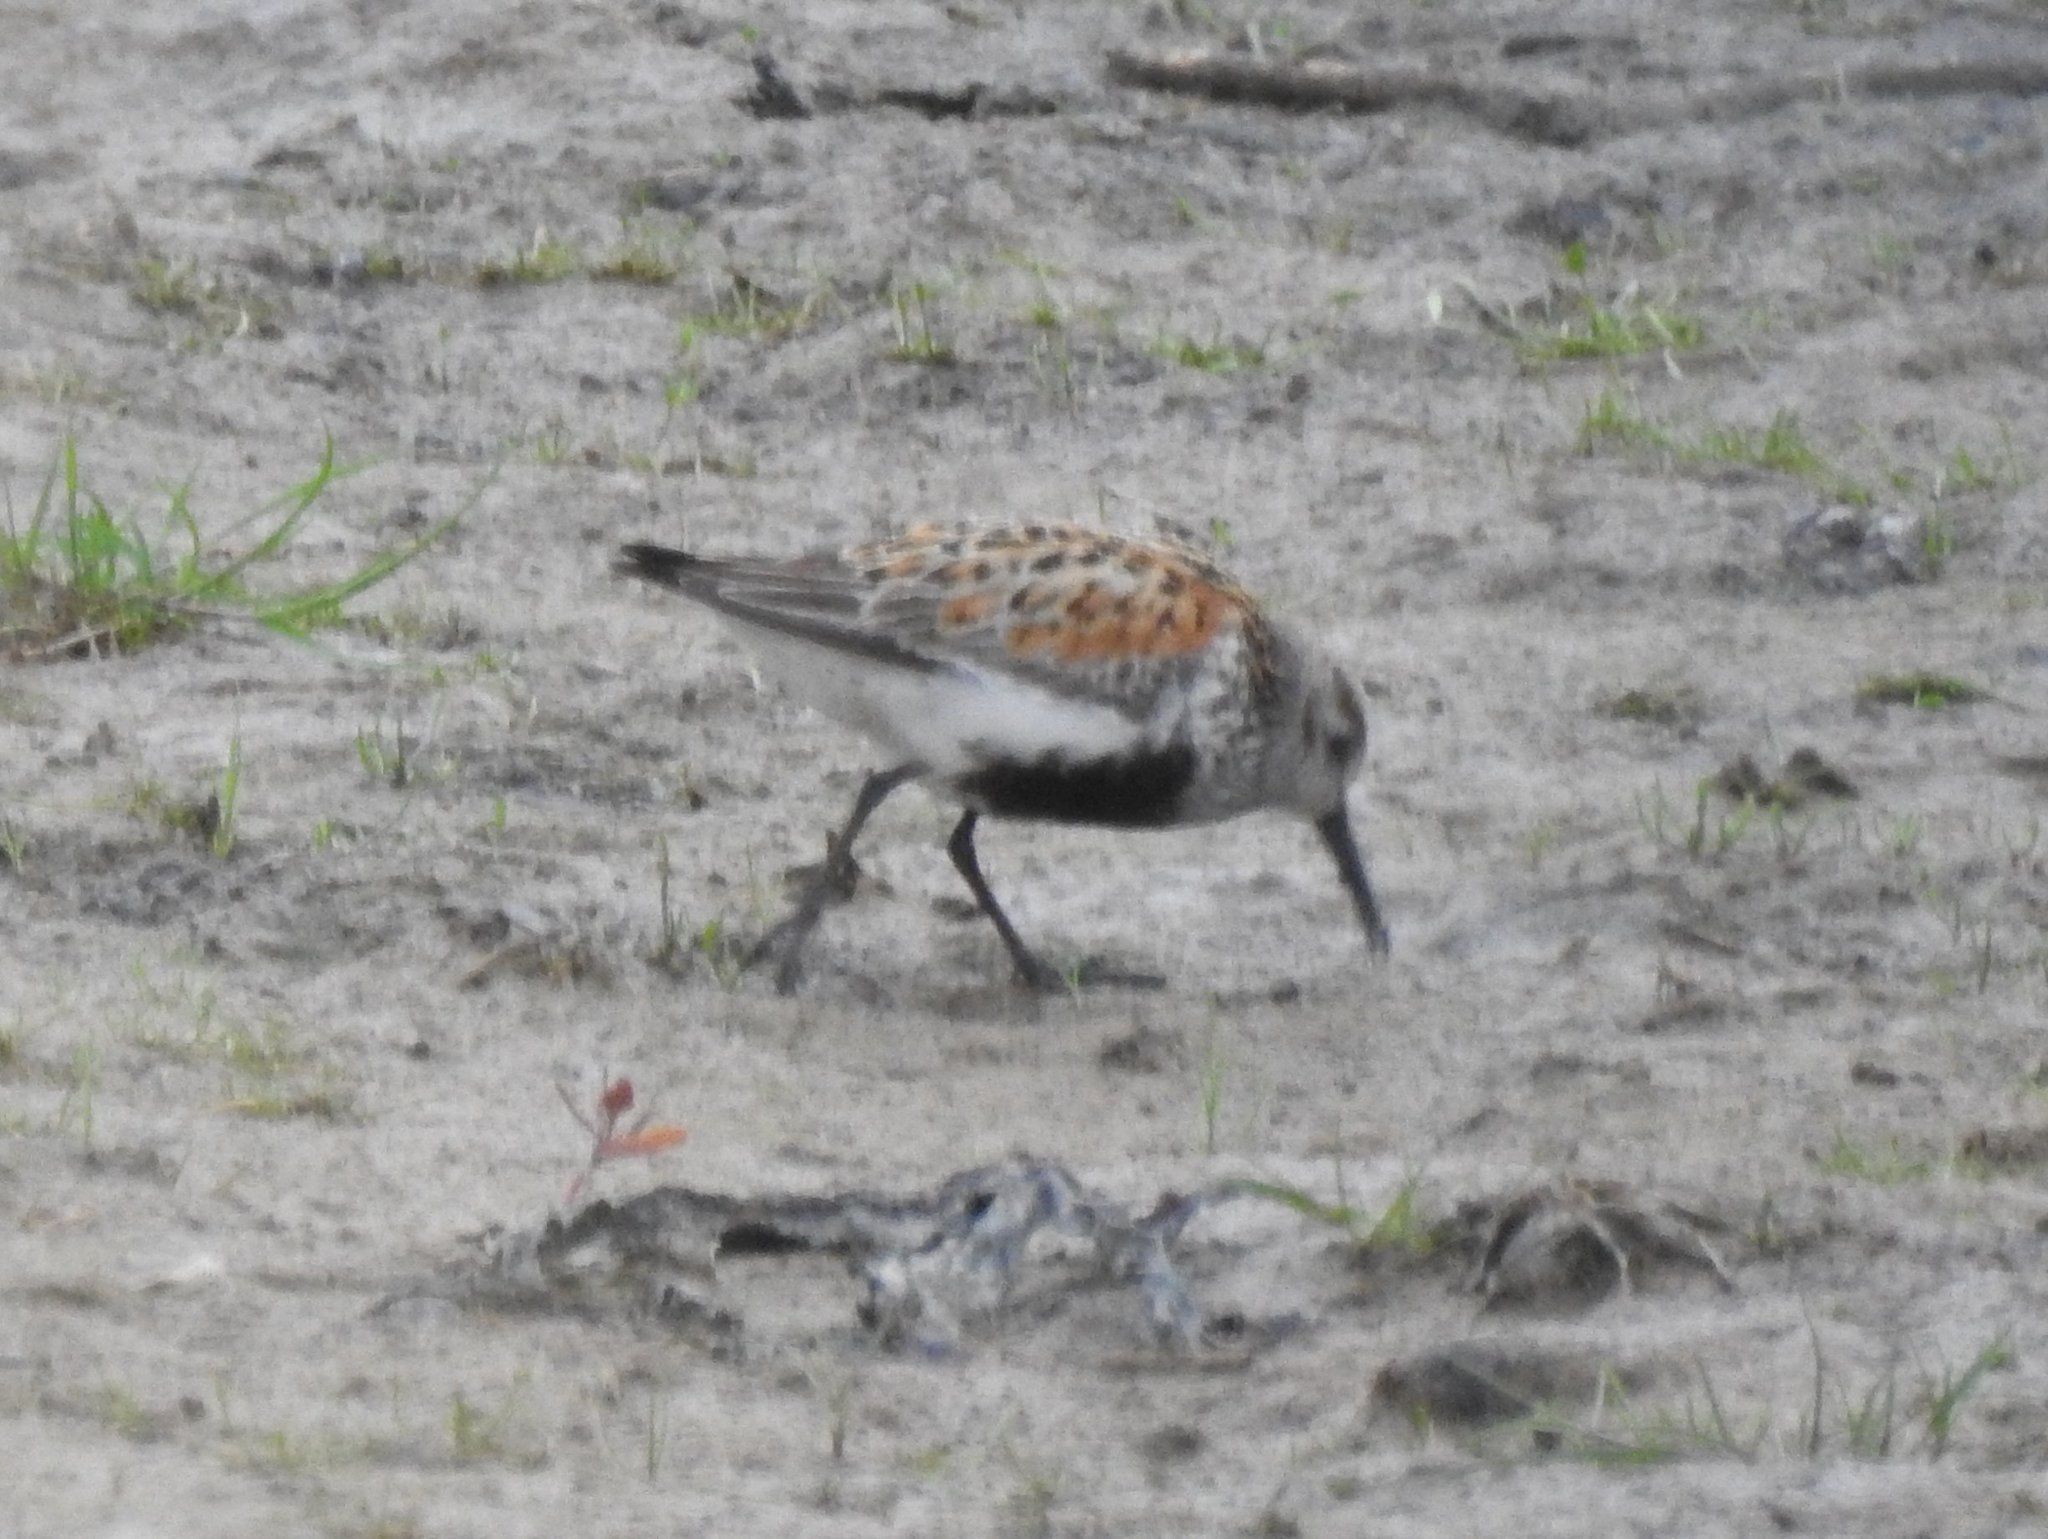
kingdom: Animalia
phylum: Chordata
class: Aves
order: Charadriiformes
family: Scolopacidae
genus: Calidris
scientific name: Calidris alpina
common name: Dunlin
